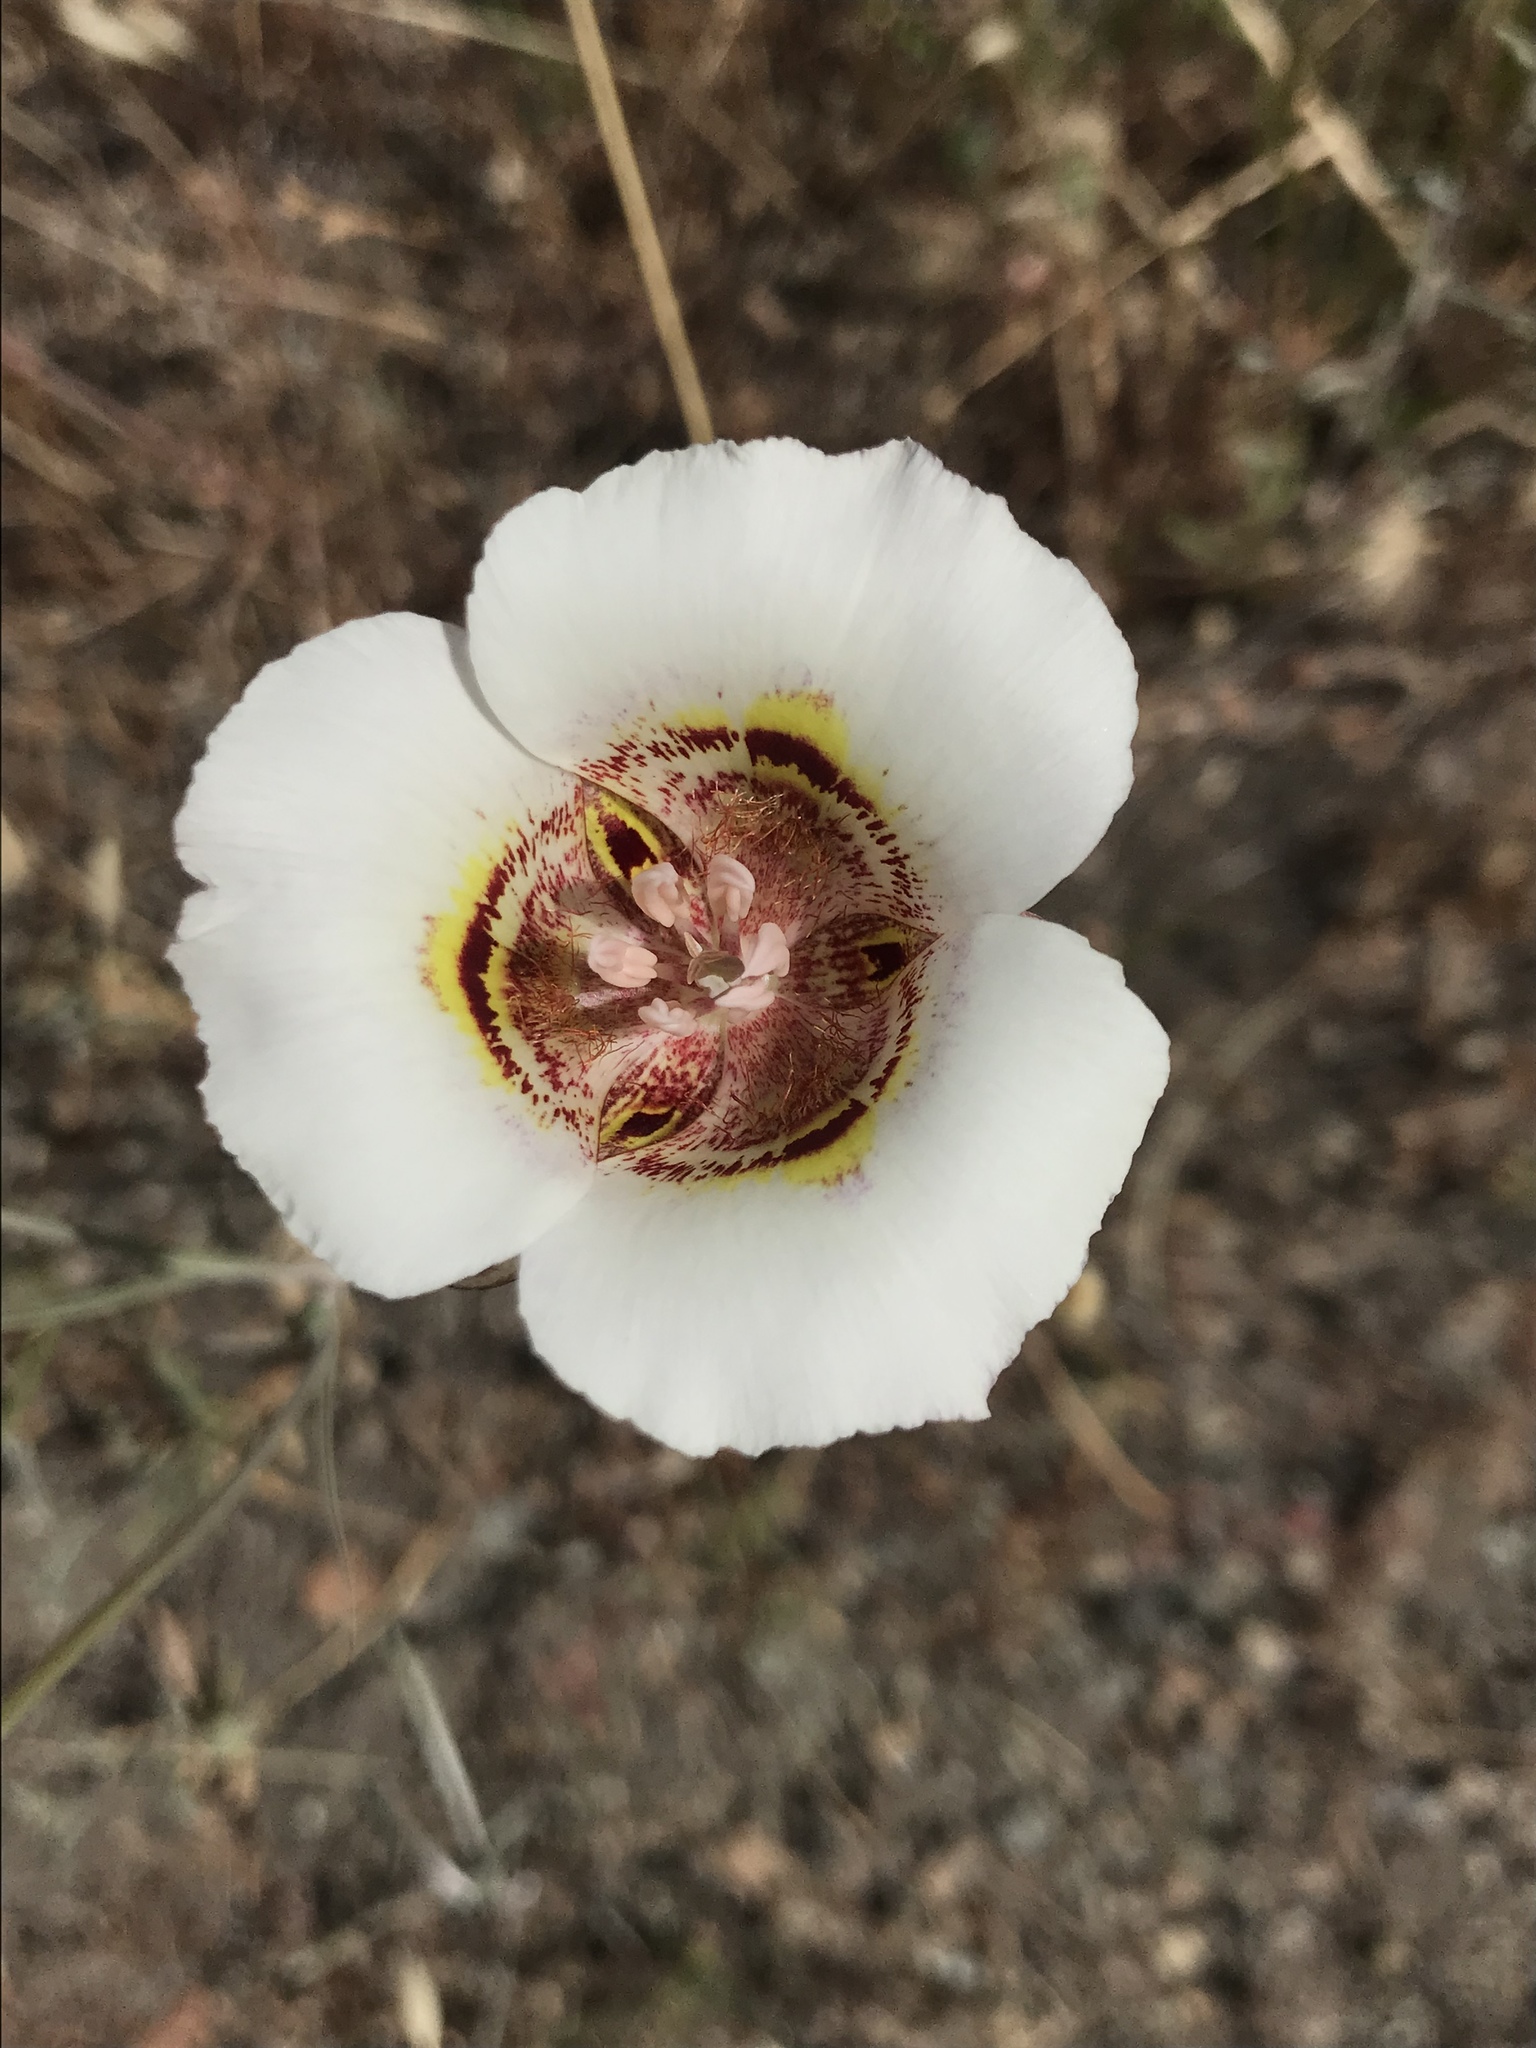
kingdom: Plantae
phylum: Tracheophyta
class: Liliopsida
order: Liliales
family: Liliaceae
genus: Calochortus
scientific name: Calochortus argillosus
